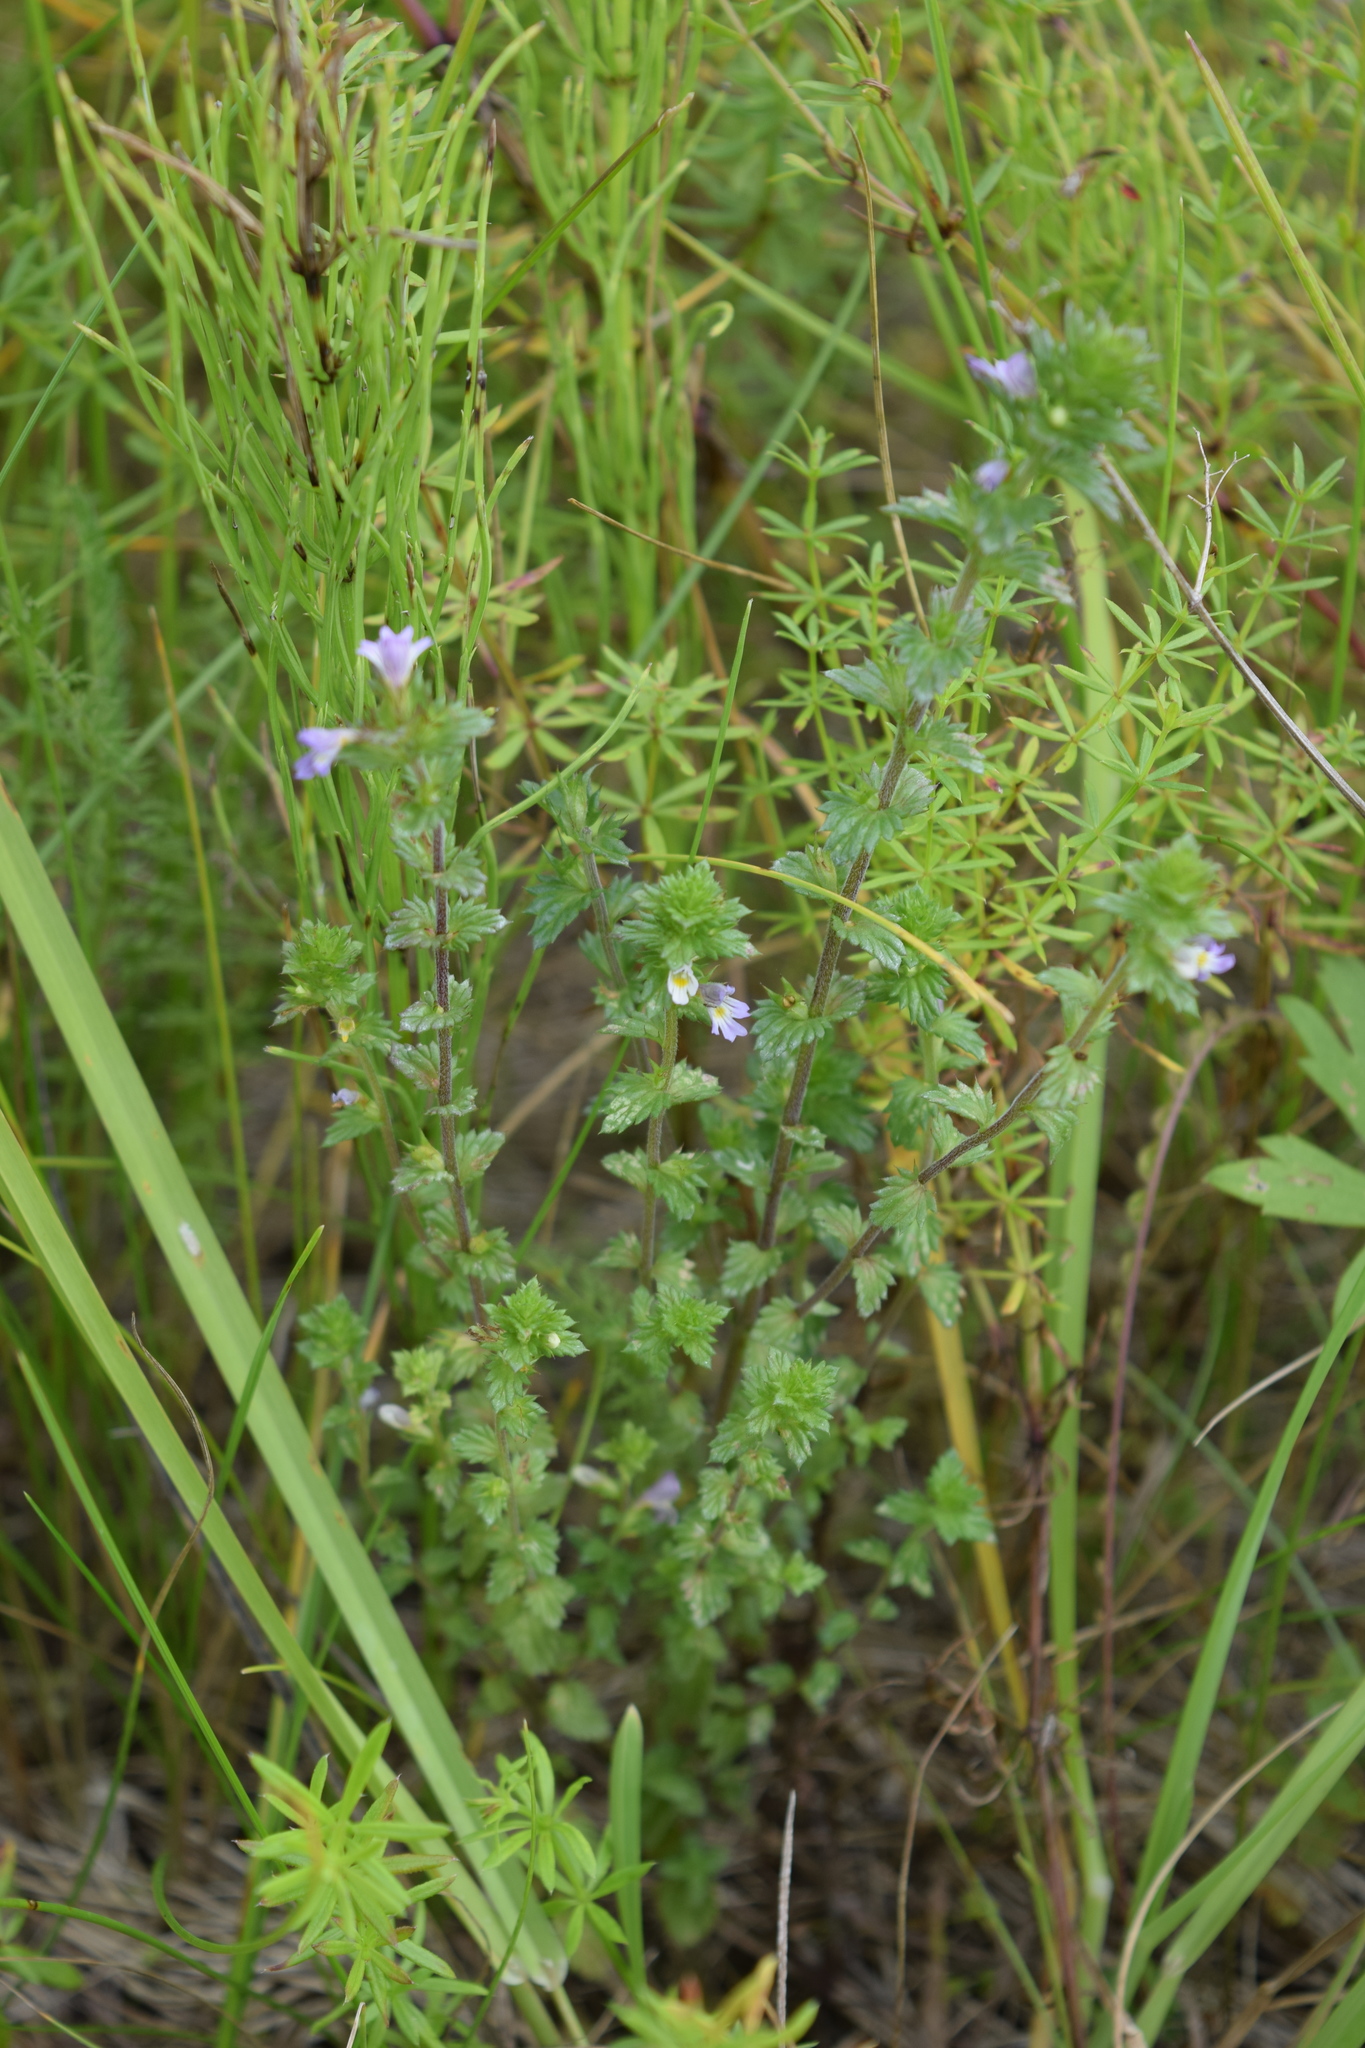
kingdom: Plantae
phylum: Tracheophyta
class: Magnoliopsida
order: Lamiales
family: Orobanchaceae
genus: Euphrasia
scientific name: Euphrasia
